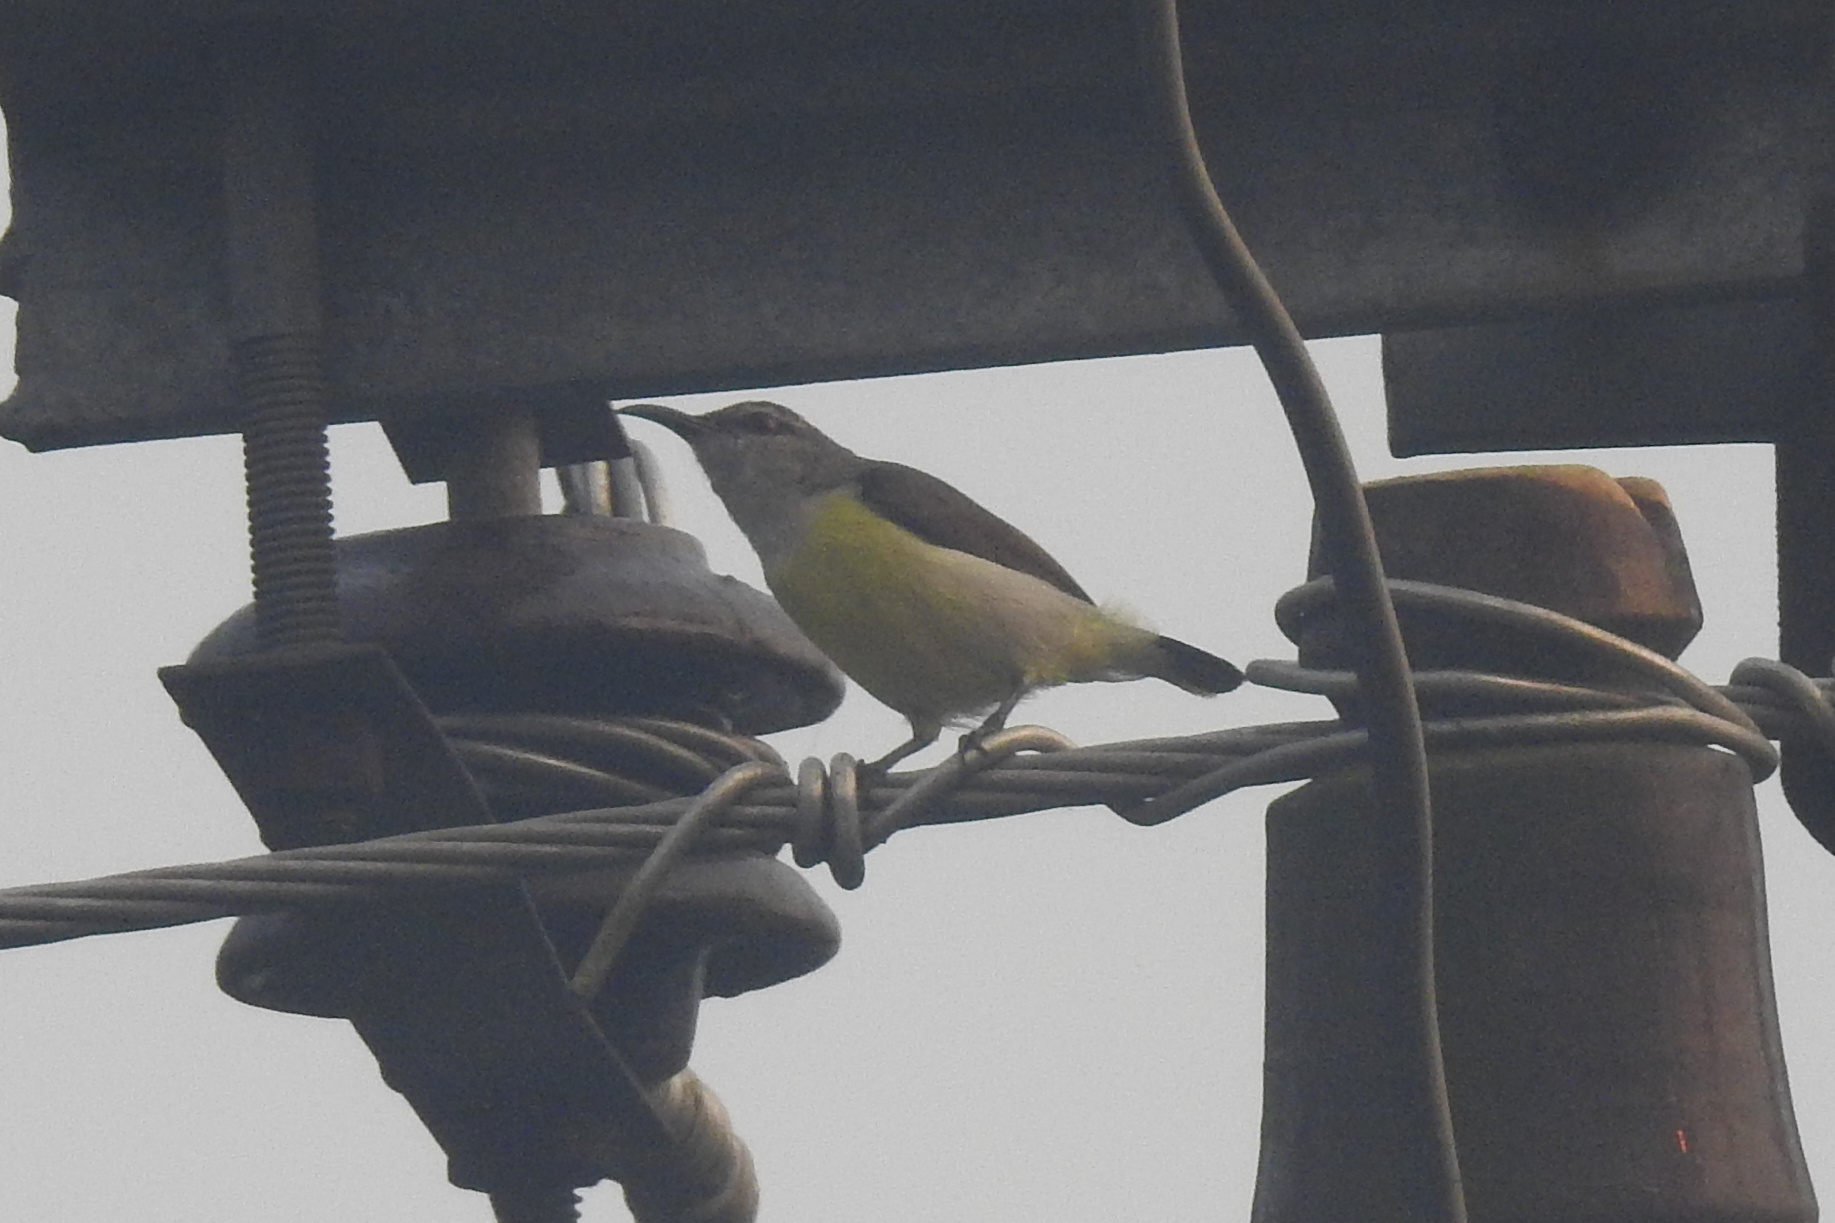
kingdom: Animalia
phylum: Chordata
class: Aves
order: Passeriformes
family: Nectariniidae
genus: Leptocoma
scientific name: Leptocoma zeylonica
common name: Purple-rumped sunbird
